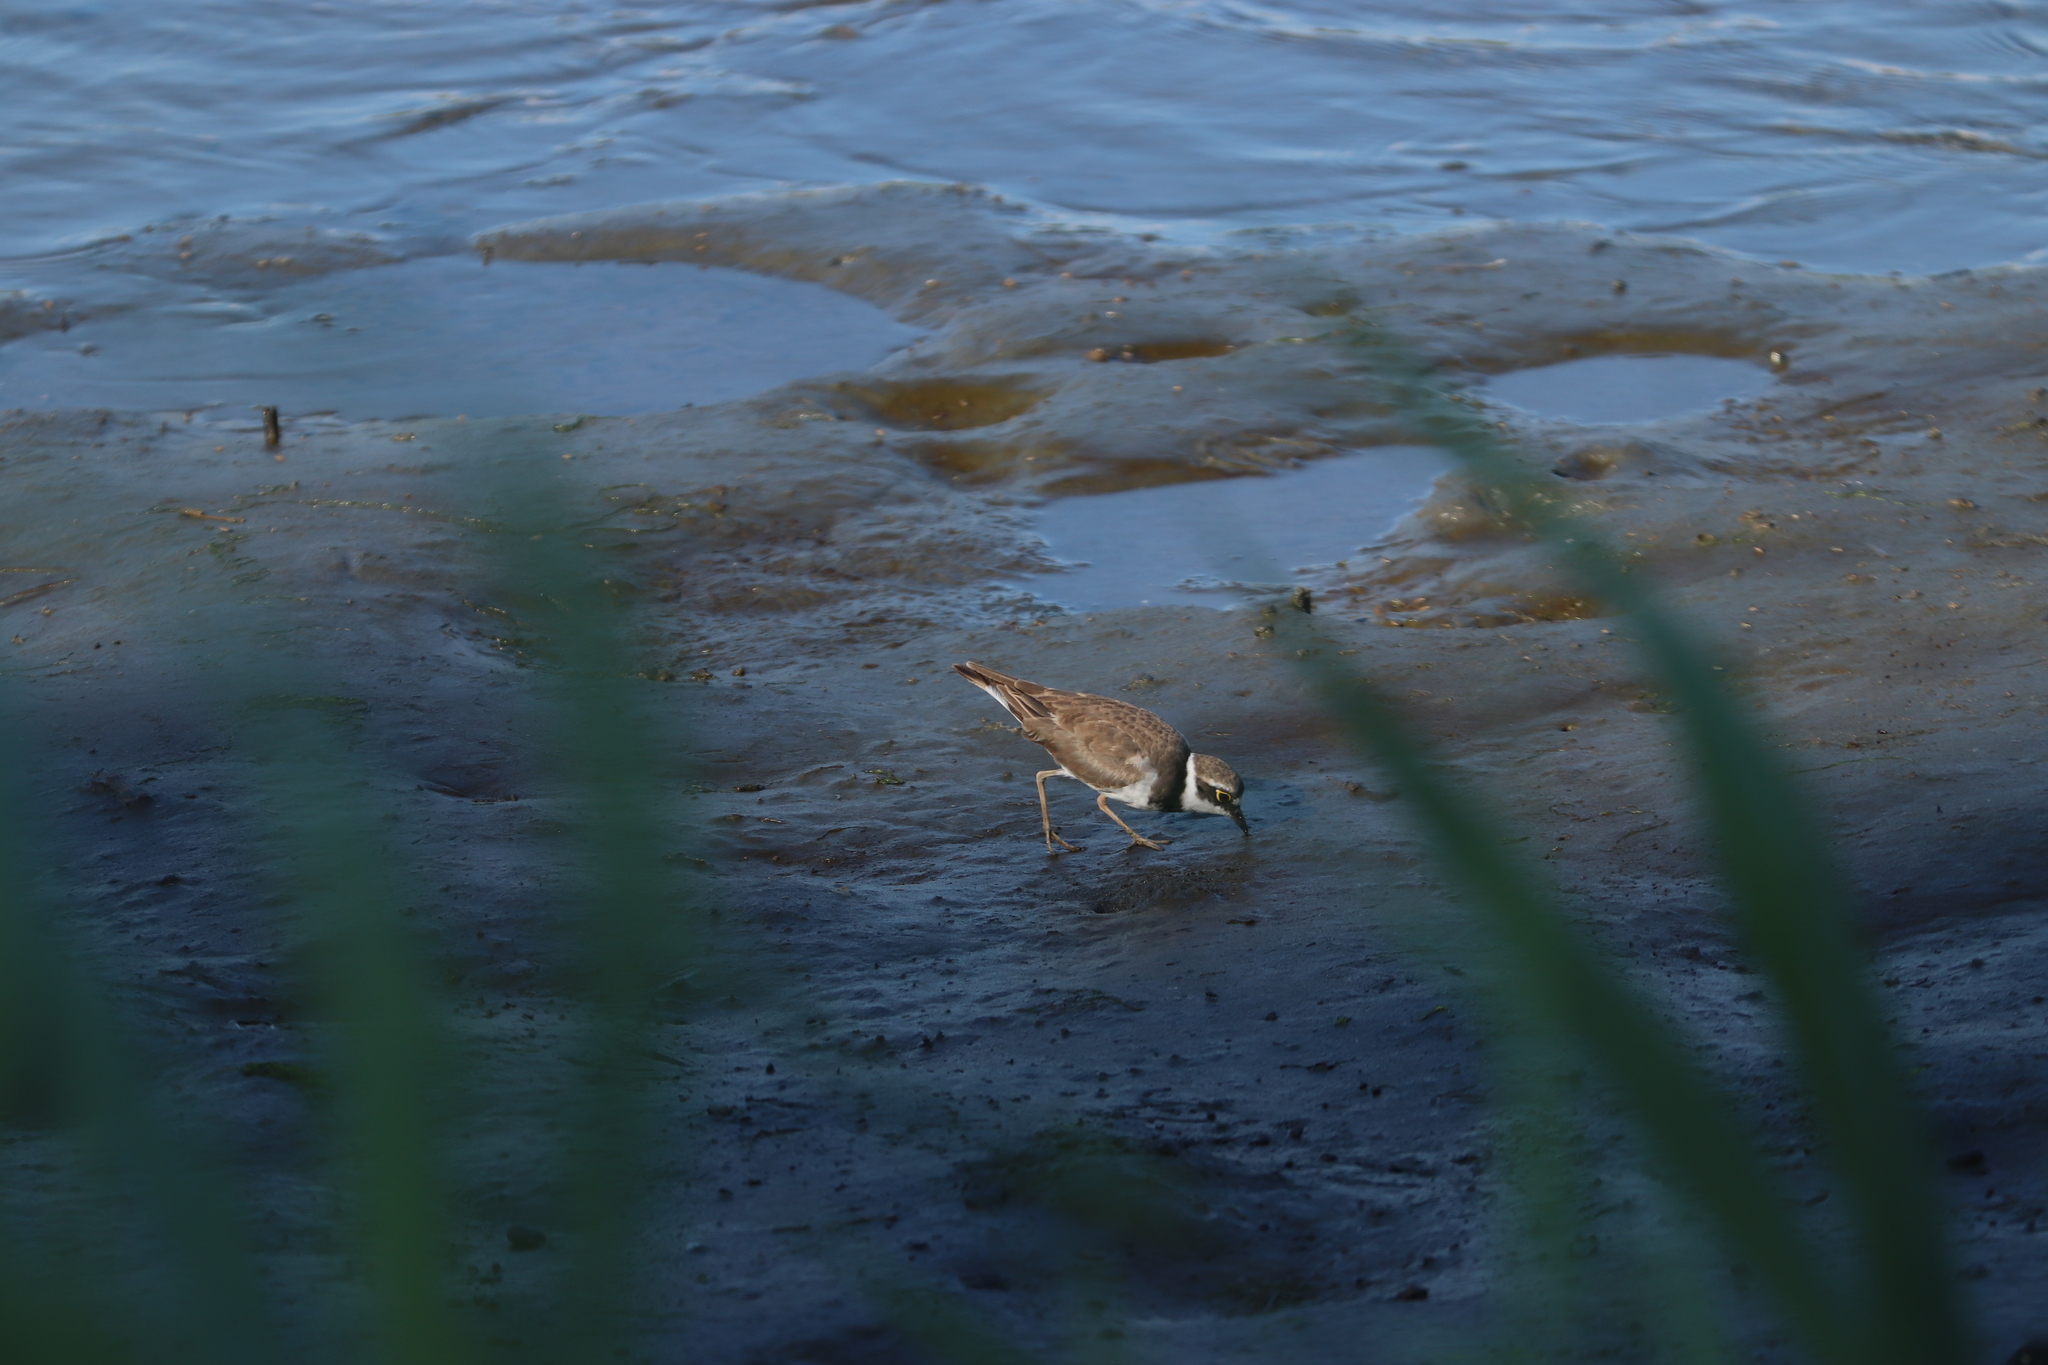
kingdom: Animalia
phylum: Chordata
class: Aves
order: Charadriiformes
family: Charadriidae
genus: Charadrius
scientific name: Charadrius dubius
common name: Little ringed plover
